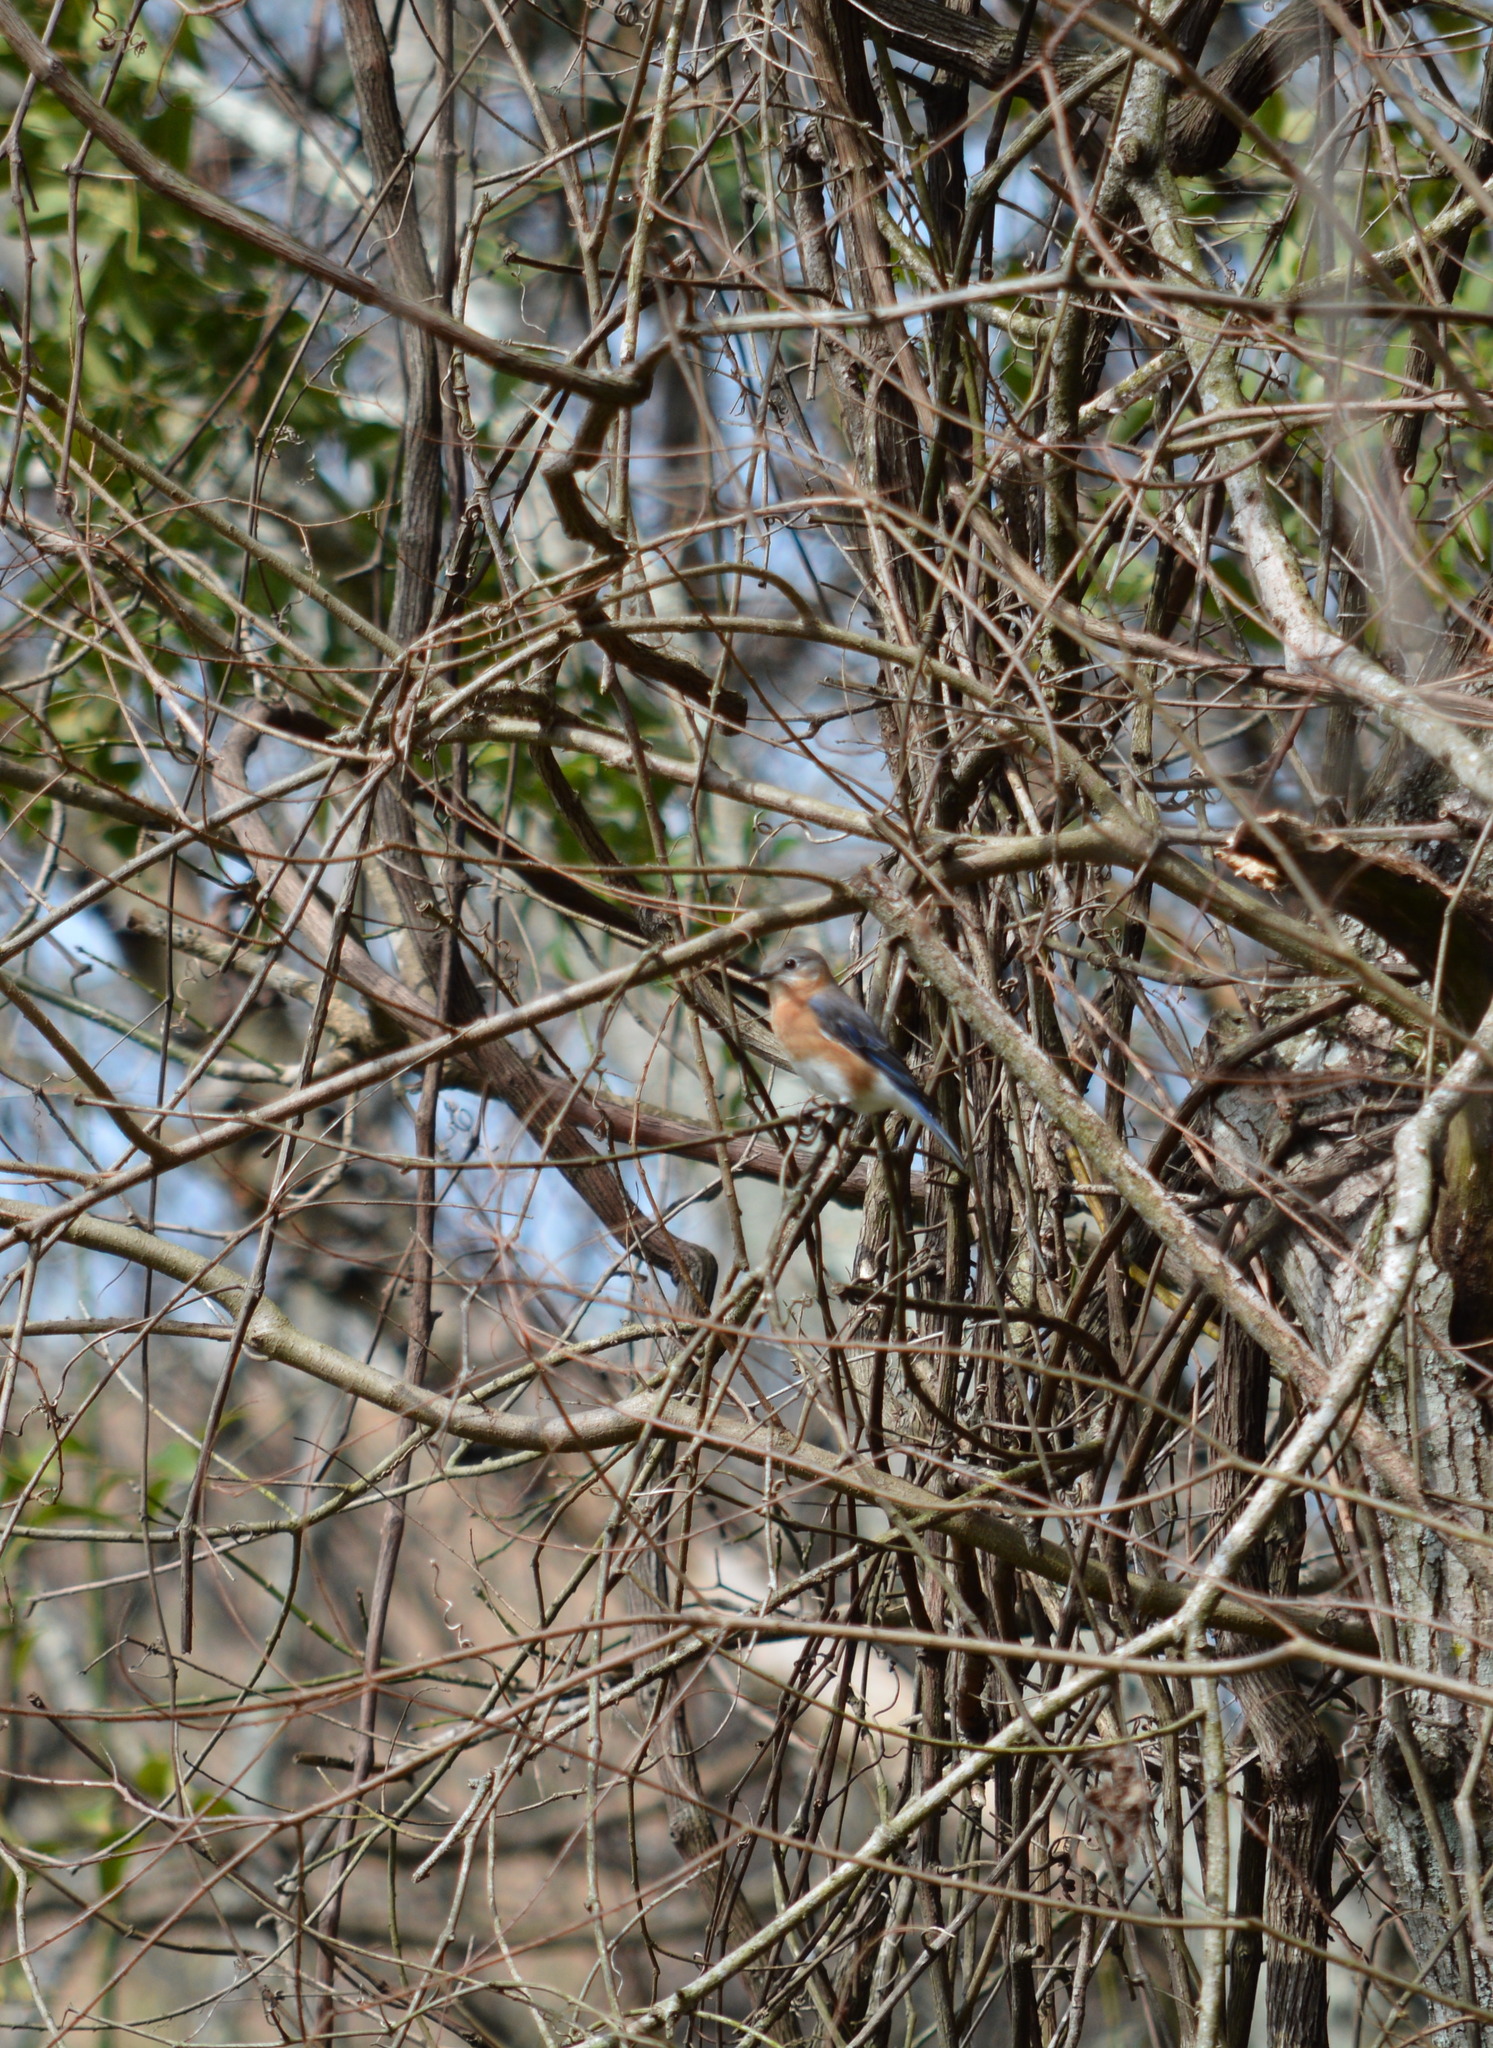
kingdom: Animalia
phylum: Chordata
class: Aves
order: Passeriformes
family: Turdidae
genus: Sialia
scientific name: Sialia sialis
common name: Eastern bluebird
